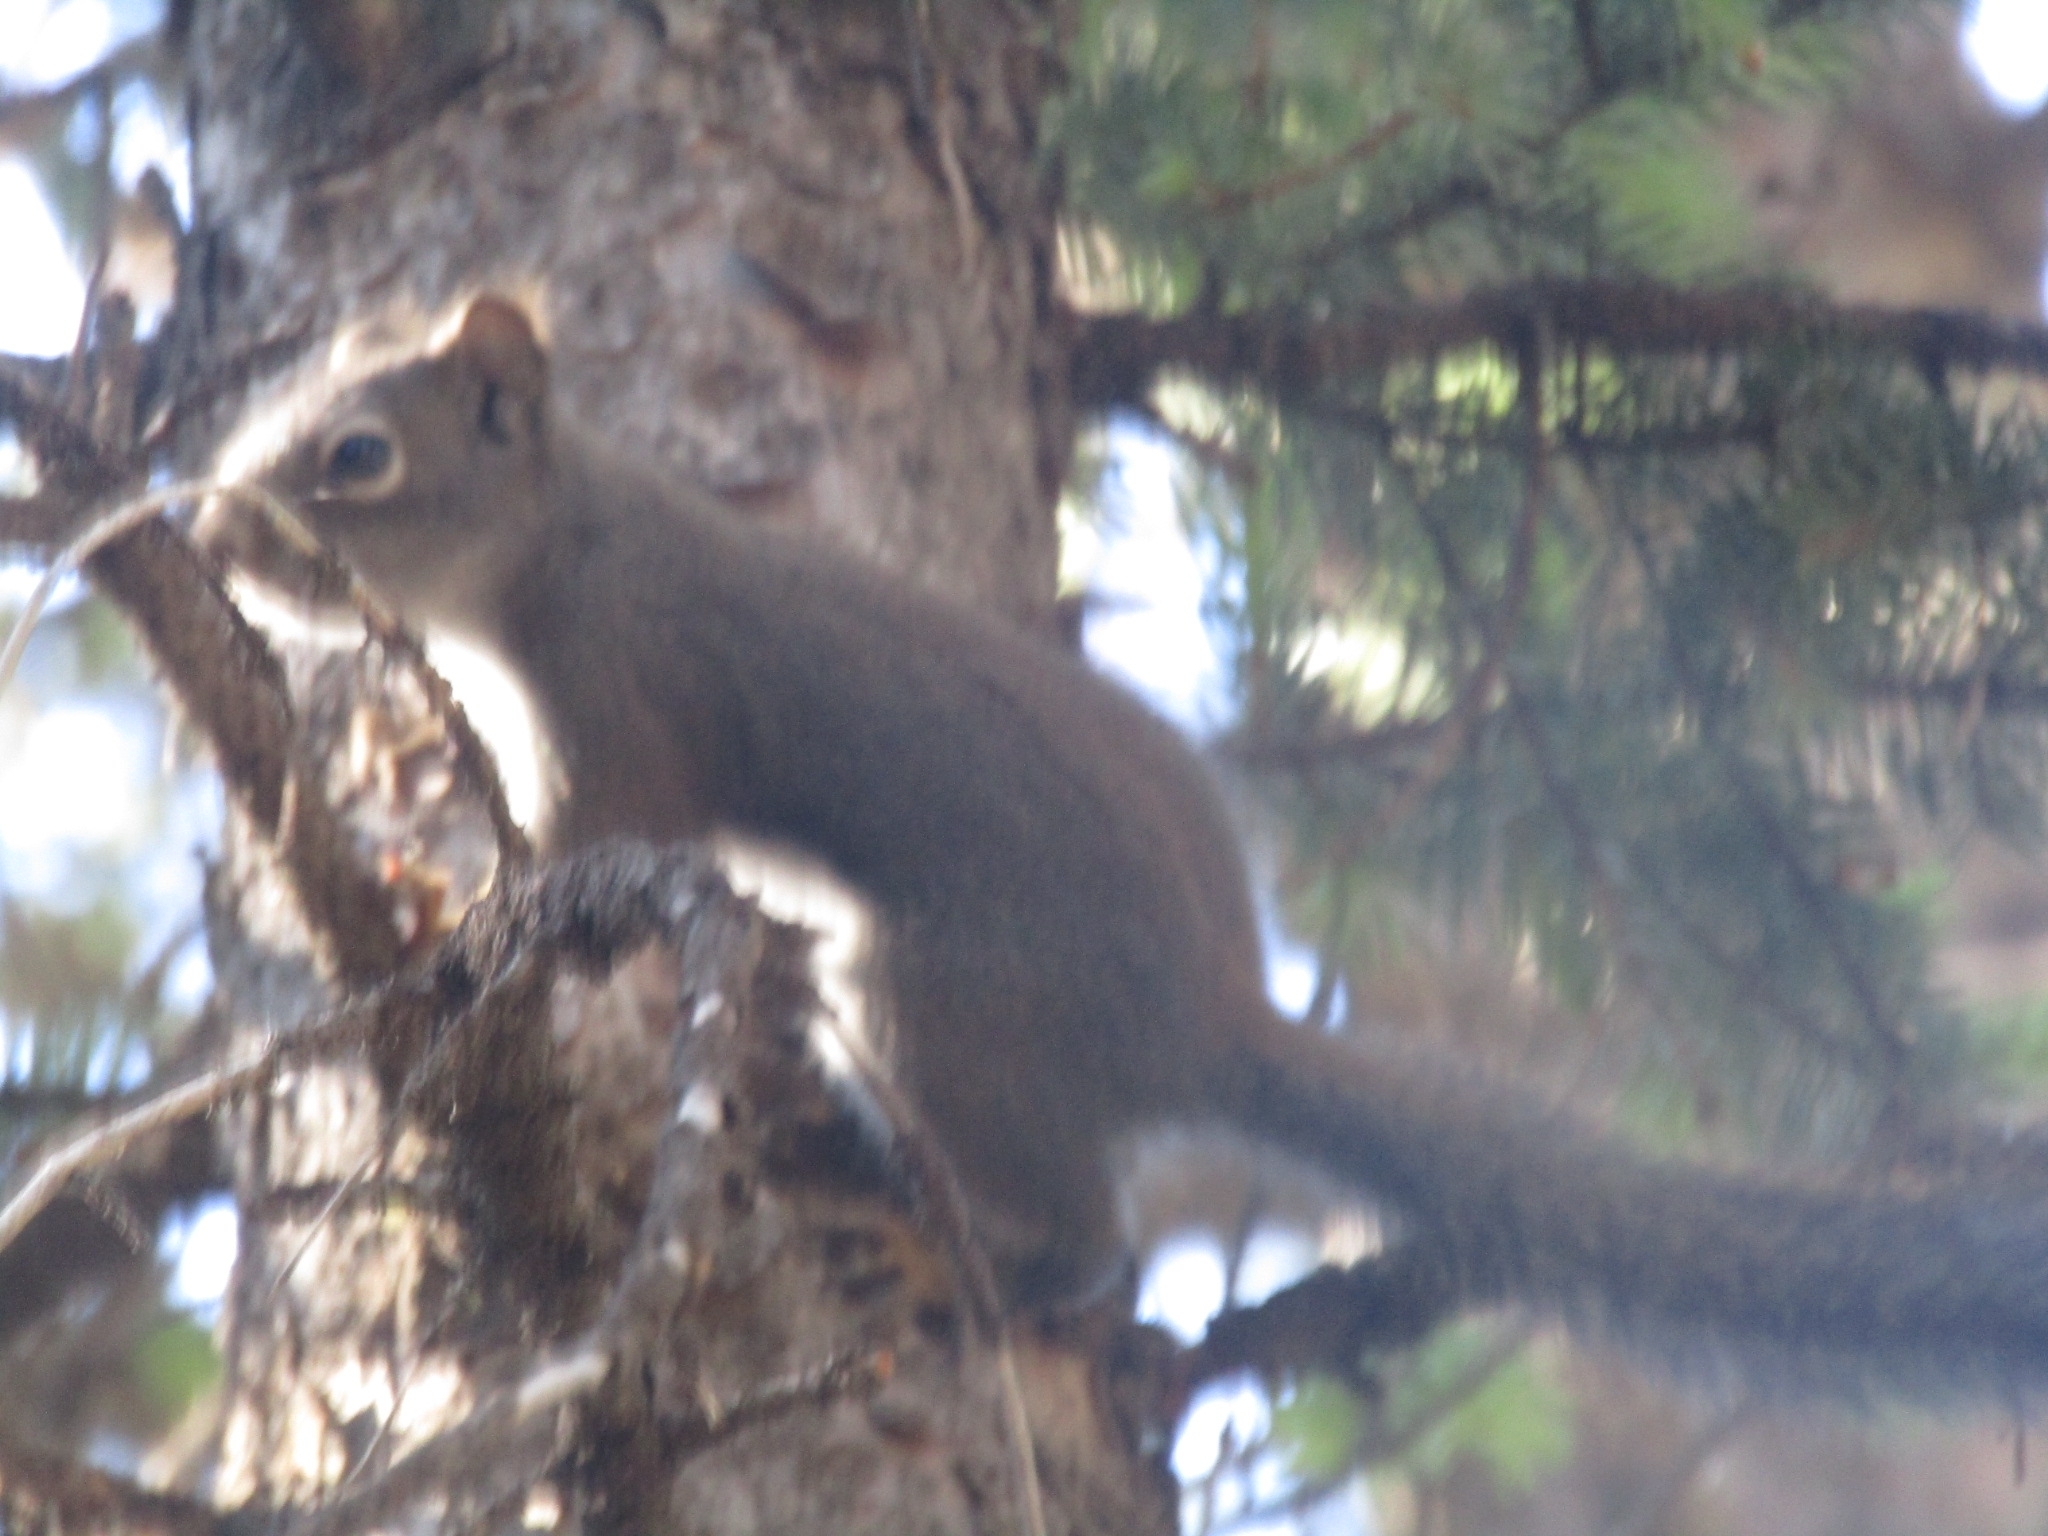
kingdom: Animalia
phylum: Chordata
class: Mammalia
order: Rodentia
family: Sciuridae
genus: Tamiasciurus
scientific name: Tamiasciurus hudsonicus
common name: Red squirrel
